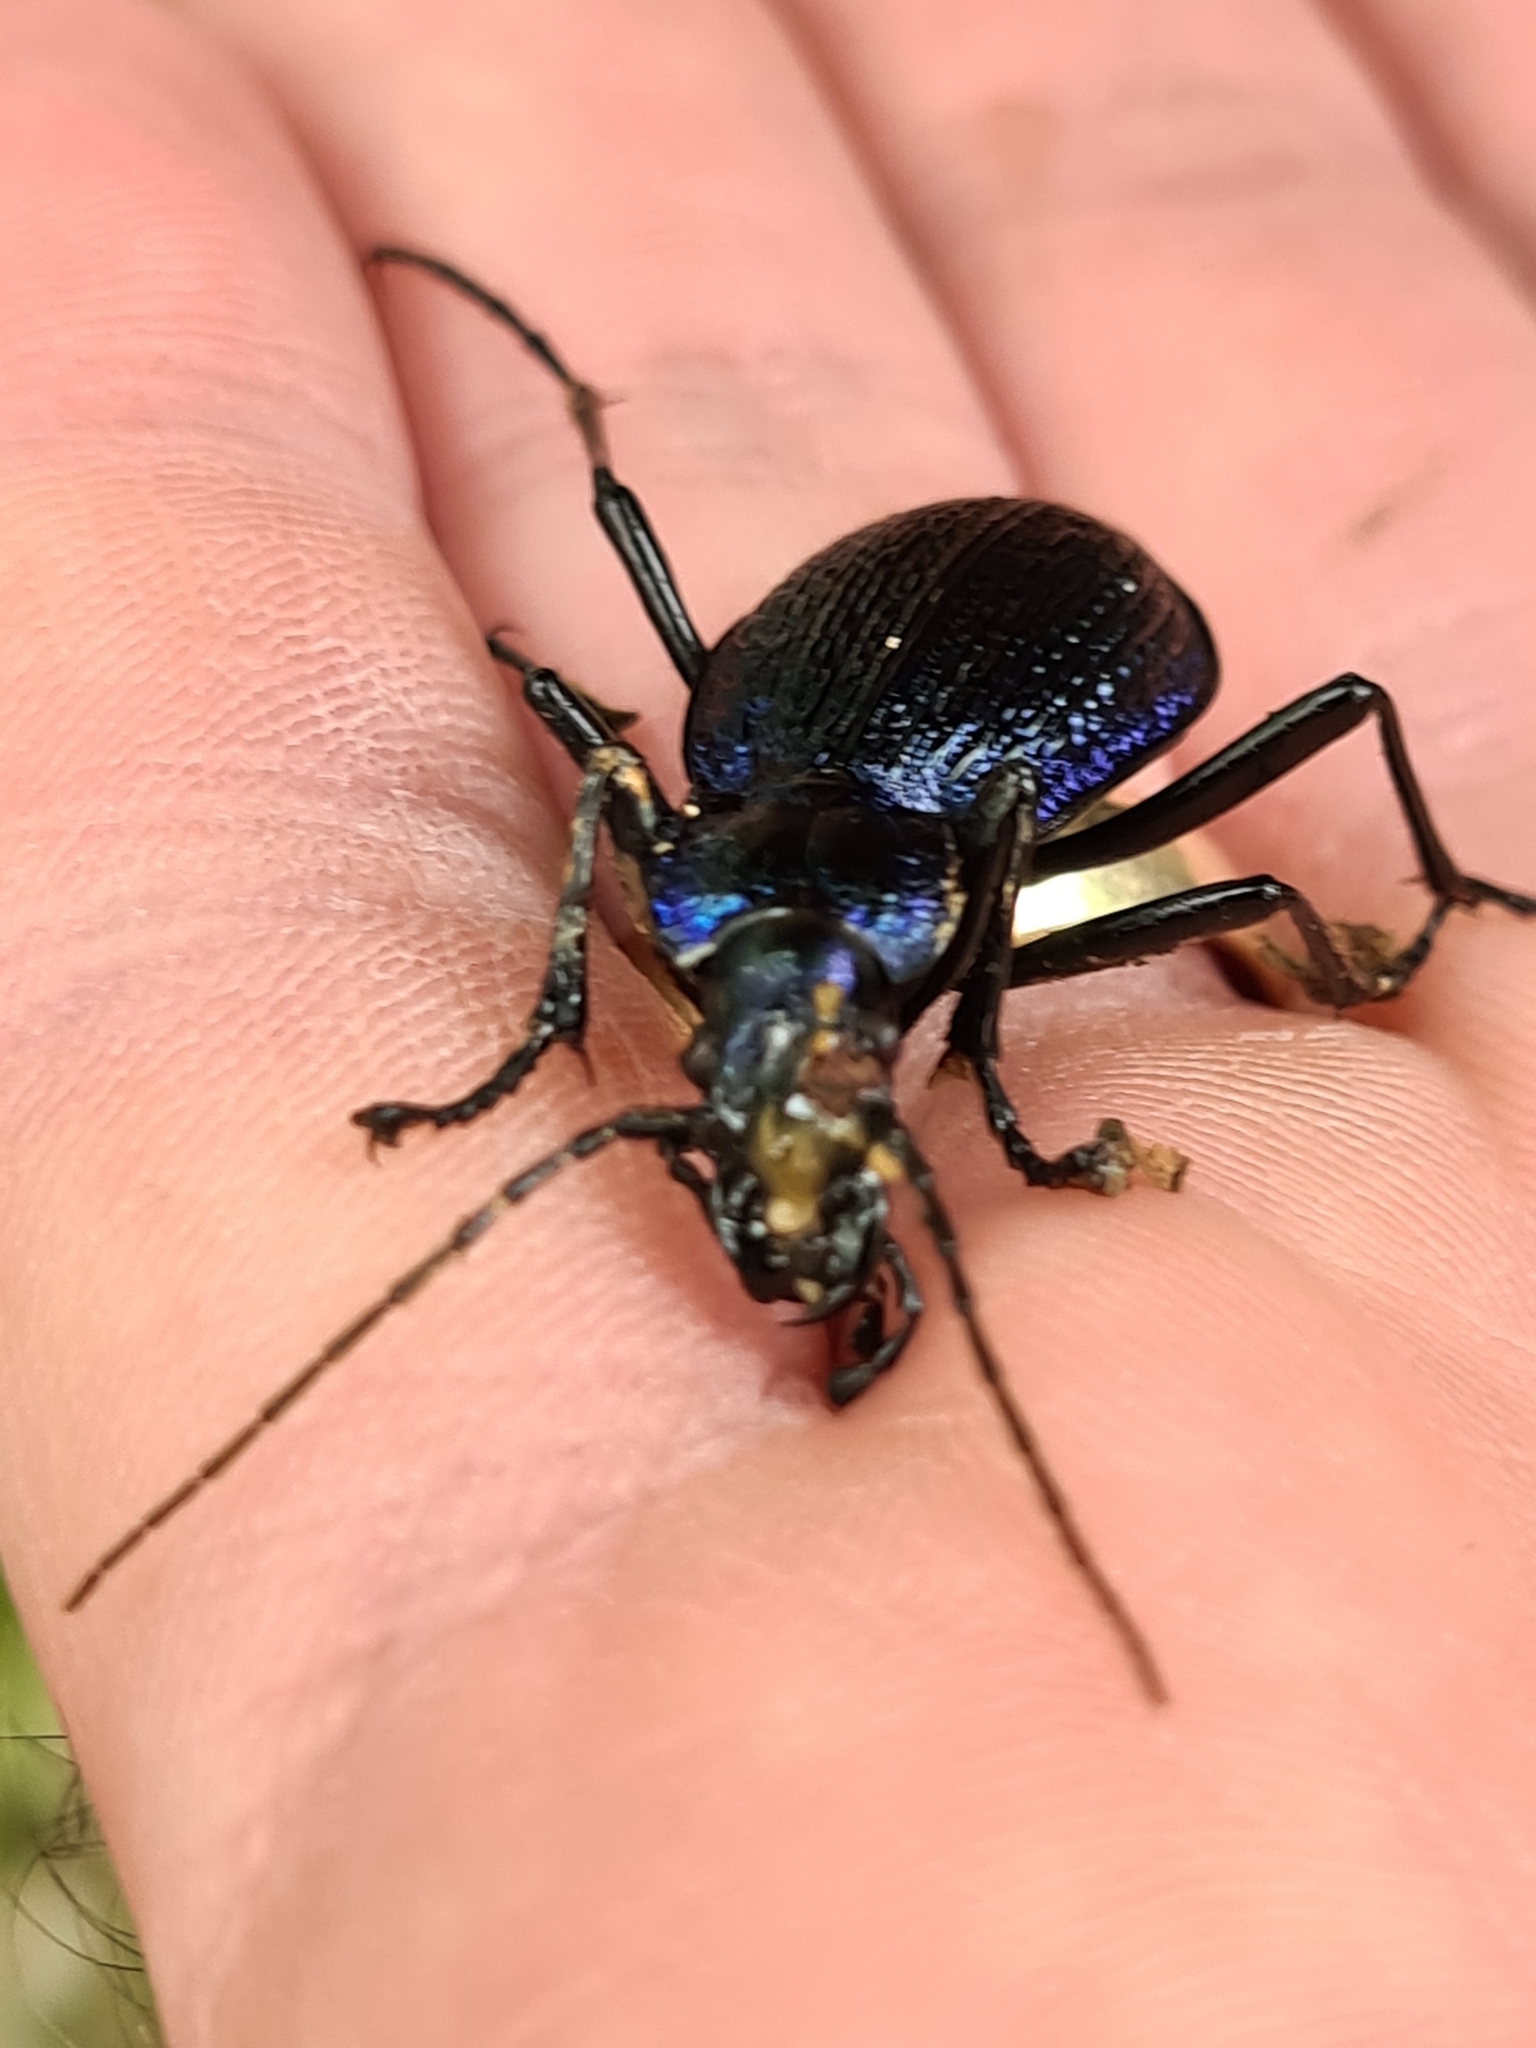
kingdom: Animalia
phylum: Arthropoda
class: Insecta
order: Coleoptera
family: Carabidae
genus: Carabus
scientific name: Carabus intricatus
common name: Blue ground beetle
